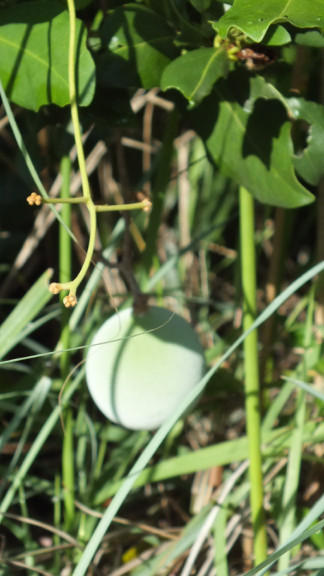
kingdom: Plantae
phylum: Tracheophyta
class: Magnoliopsida
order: Gentianales
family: Apocynaceae
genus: Ancylobothrys
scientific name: Ancylobothrys petersiana
